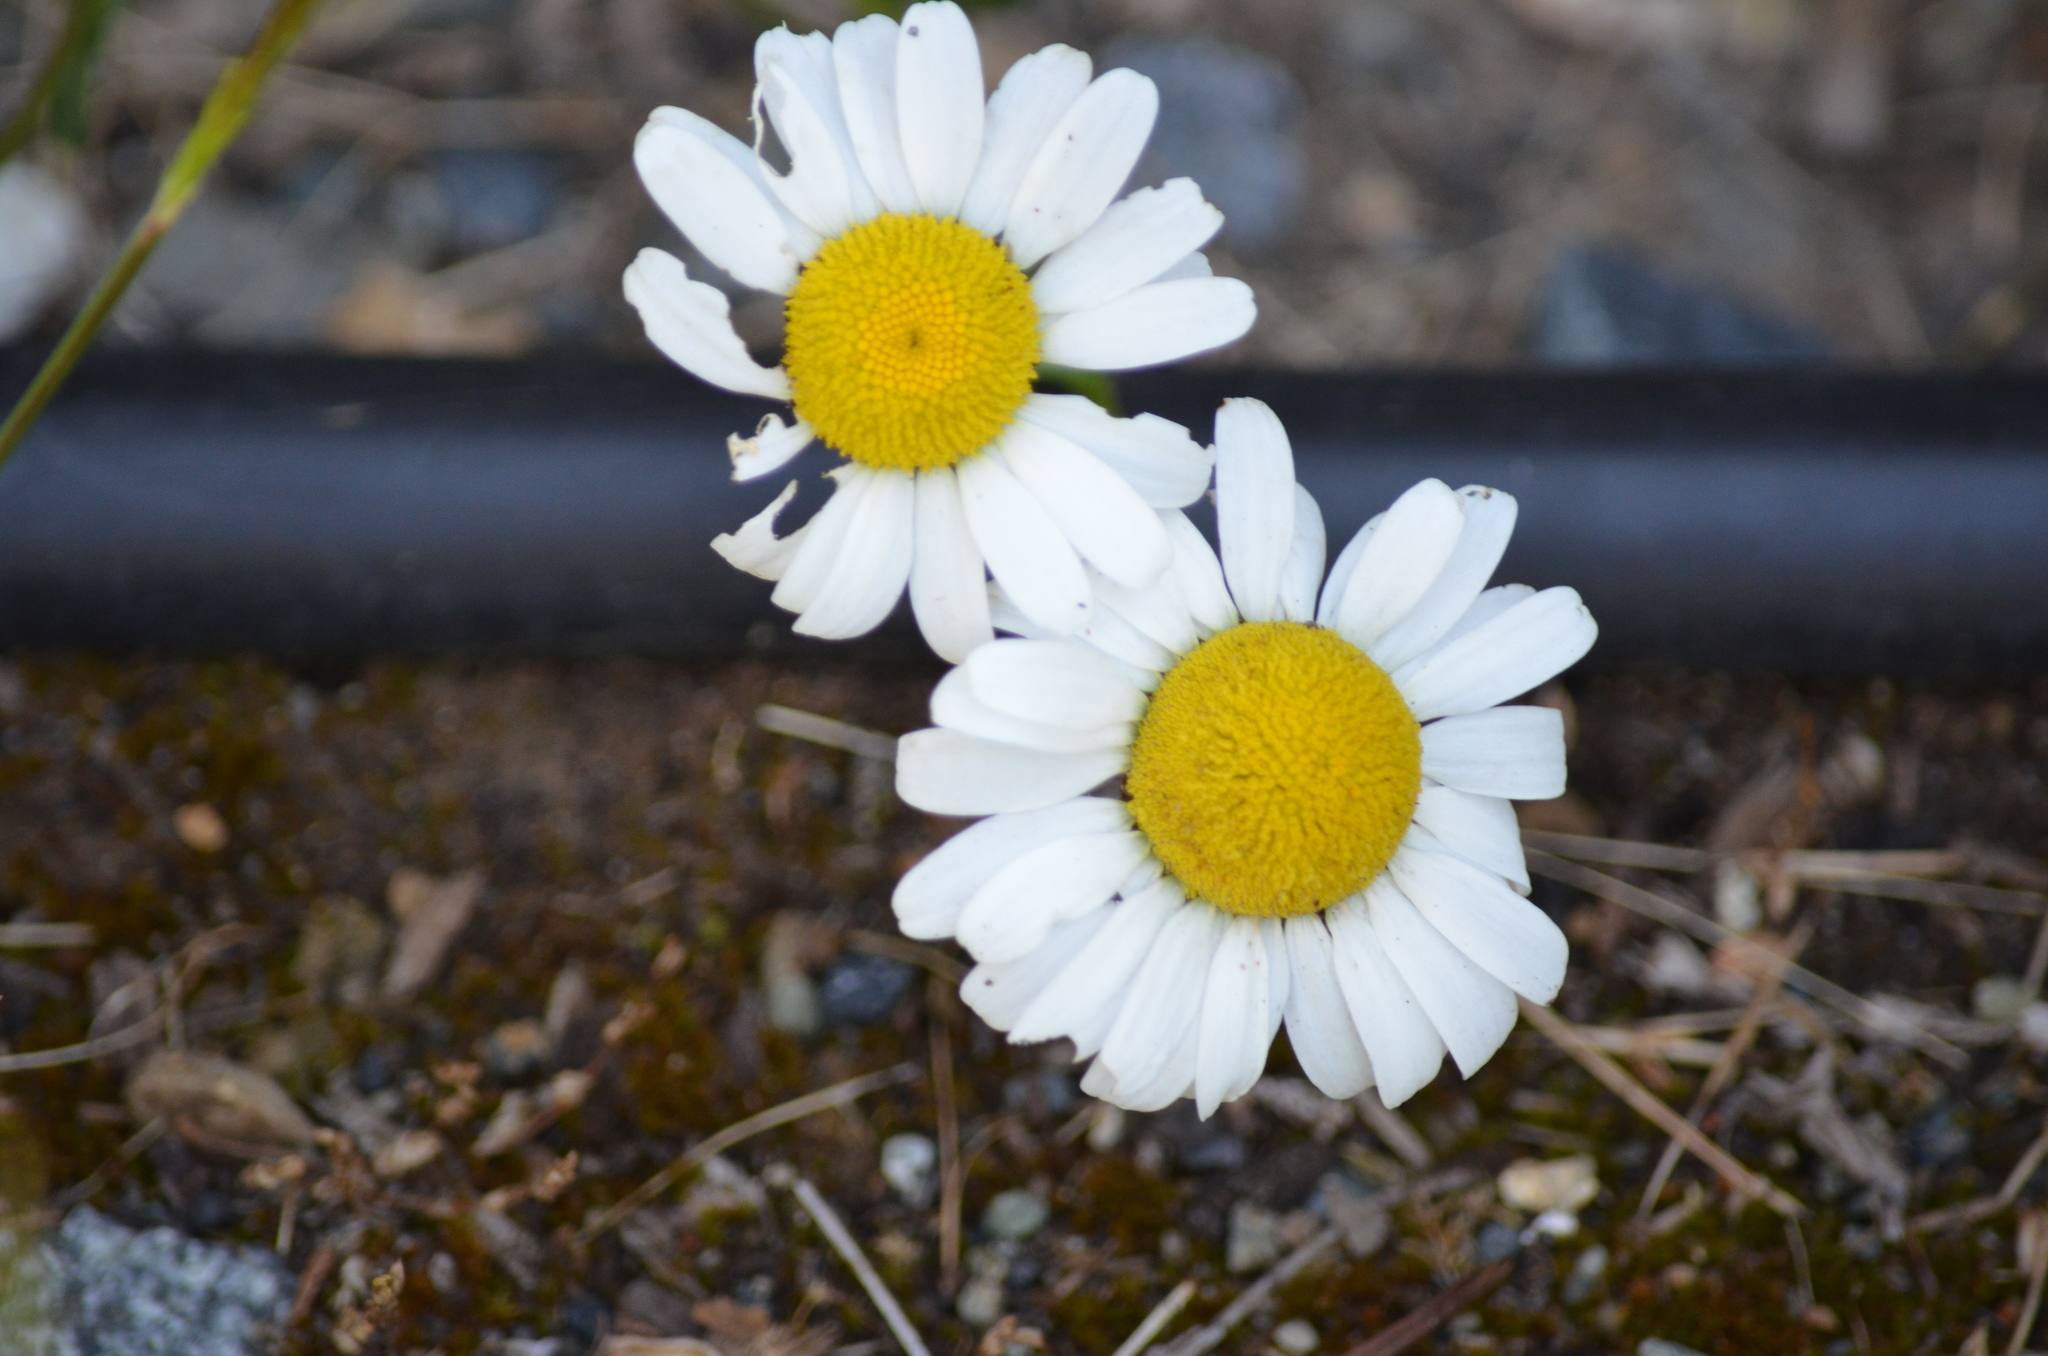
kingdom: Plantae
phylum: Tracheophyta
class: Magnoliopsida
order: Asterales
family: Asteraceae
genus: Leucanthemum
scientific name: Leucanthemum vulgare
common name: Oxeye daisy
